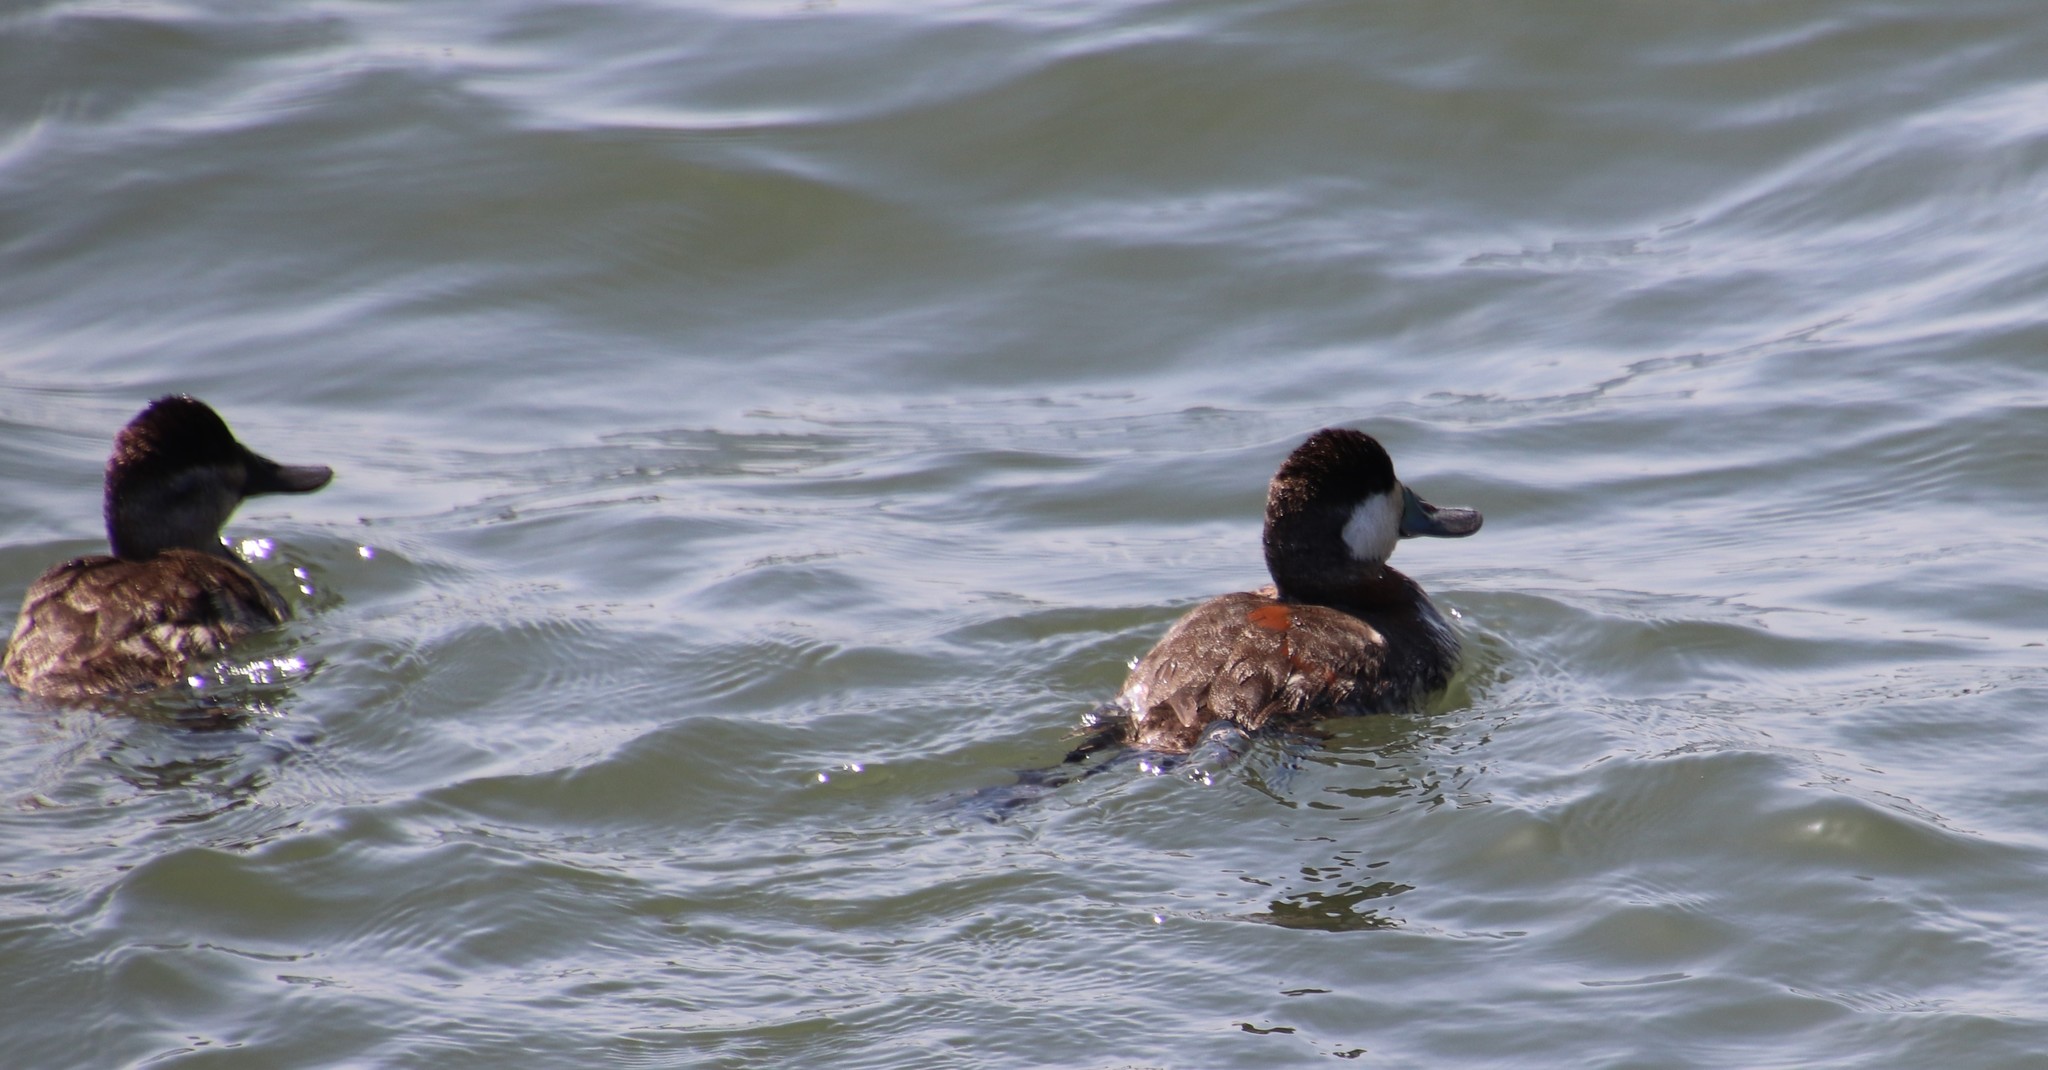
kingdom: Animalia
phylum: Chordata
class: Aves
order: Anseriformes
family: Anatidae
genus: Oxyura
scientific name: Oxyura jamaicensis
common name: Ruddy duck
